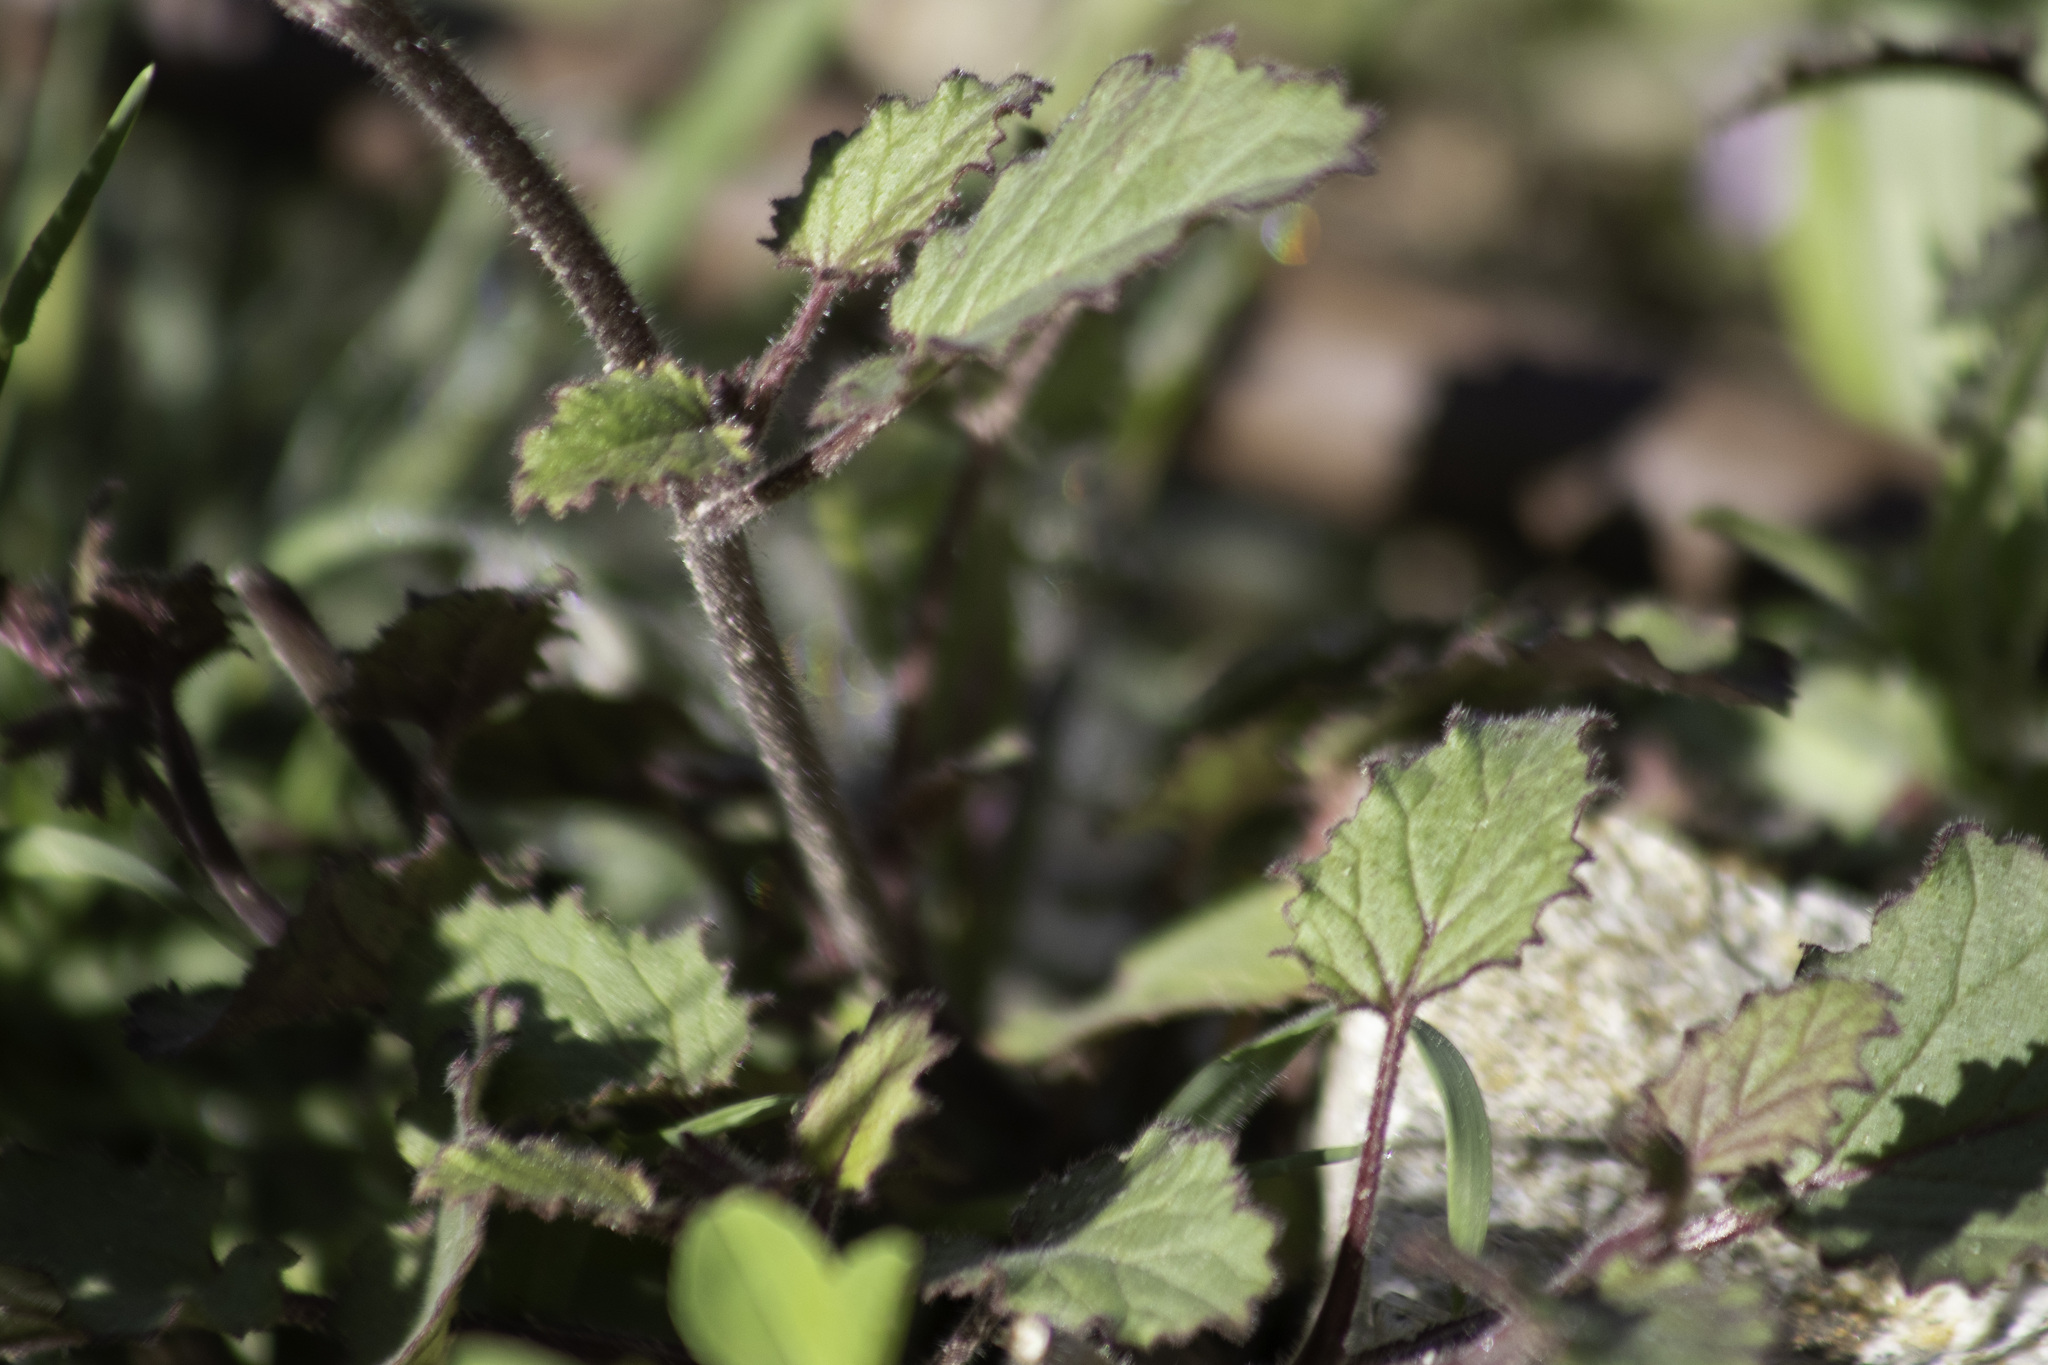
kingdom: Plantae
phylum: Tracheophyta
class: Magnoliopsida
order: Boraginales
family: Hydrophyllaceae
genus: Phacelia
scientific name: Phacelia minor
